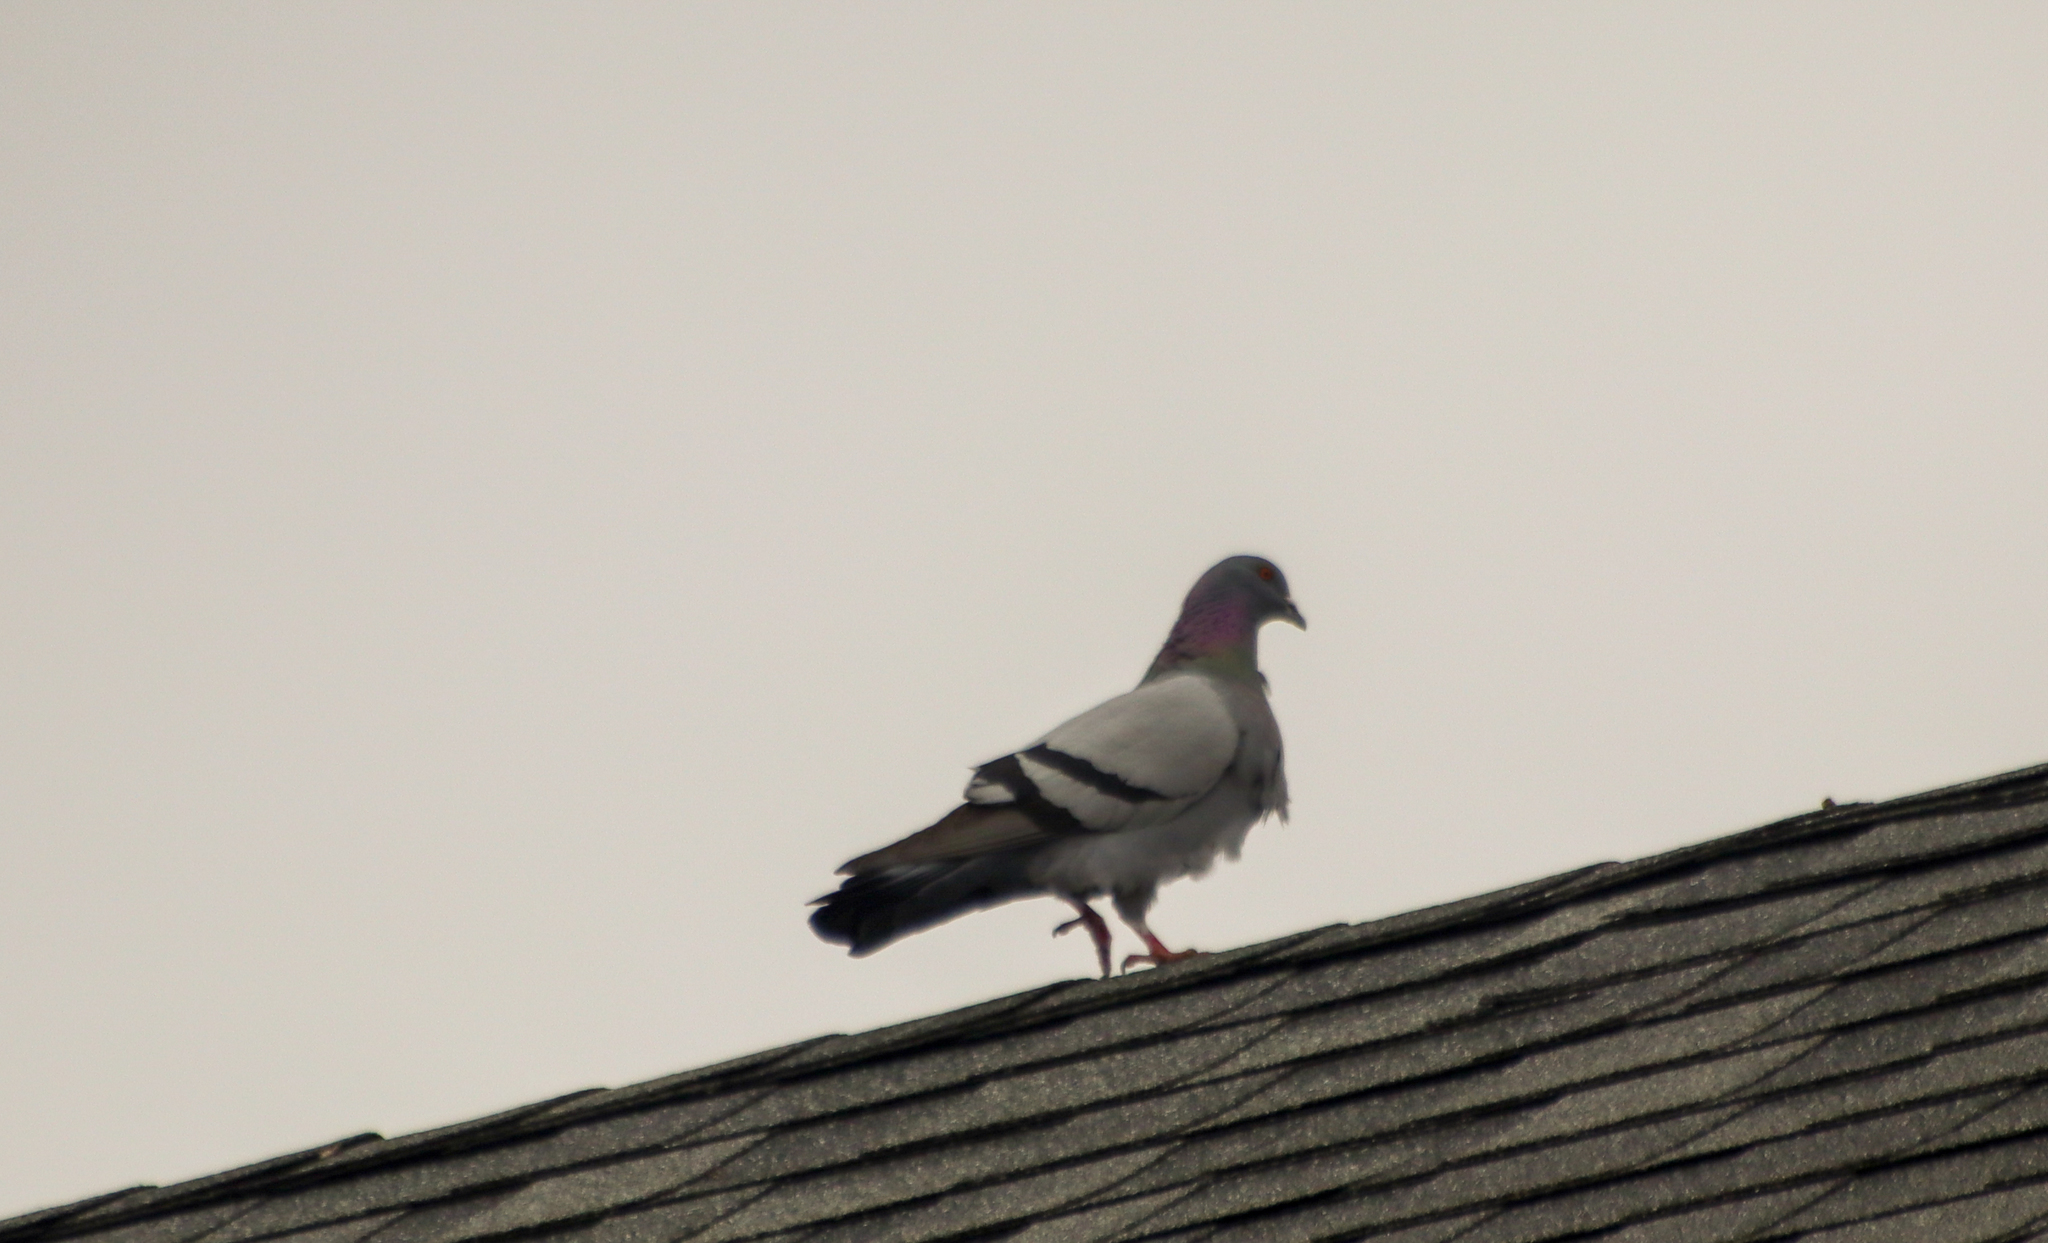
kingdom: Animalia
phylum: Chordata
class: Aves
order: Columbiformes
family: Columbidae
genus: Columba
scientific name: Columba livia
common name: Rock pigeon
